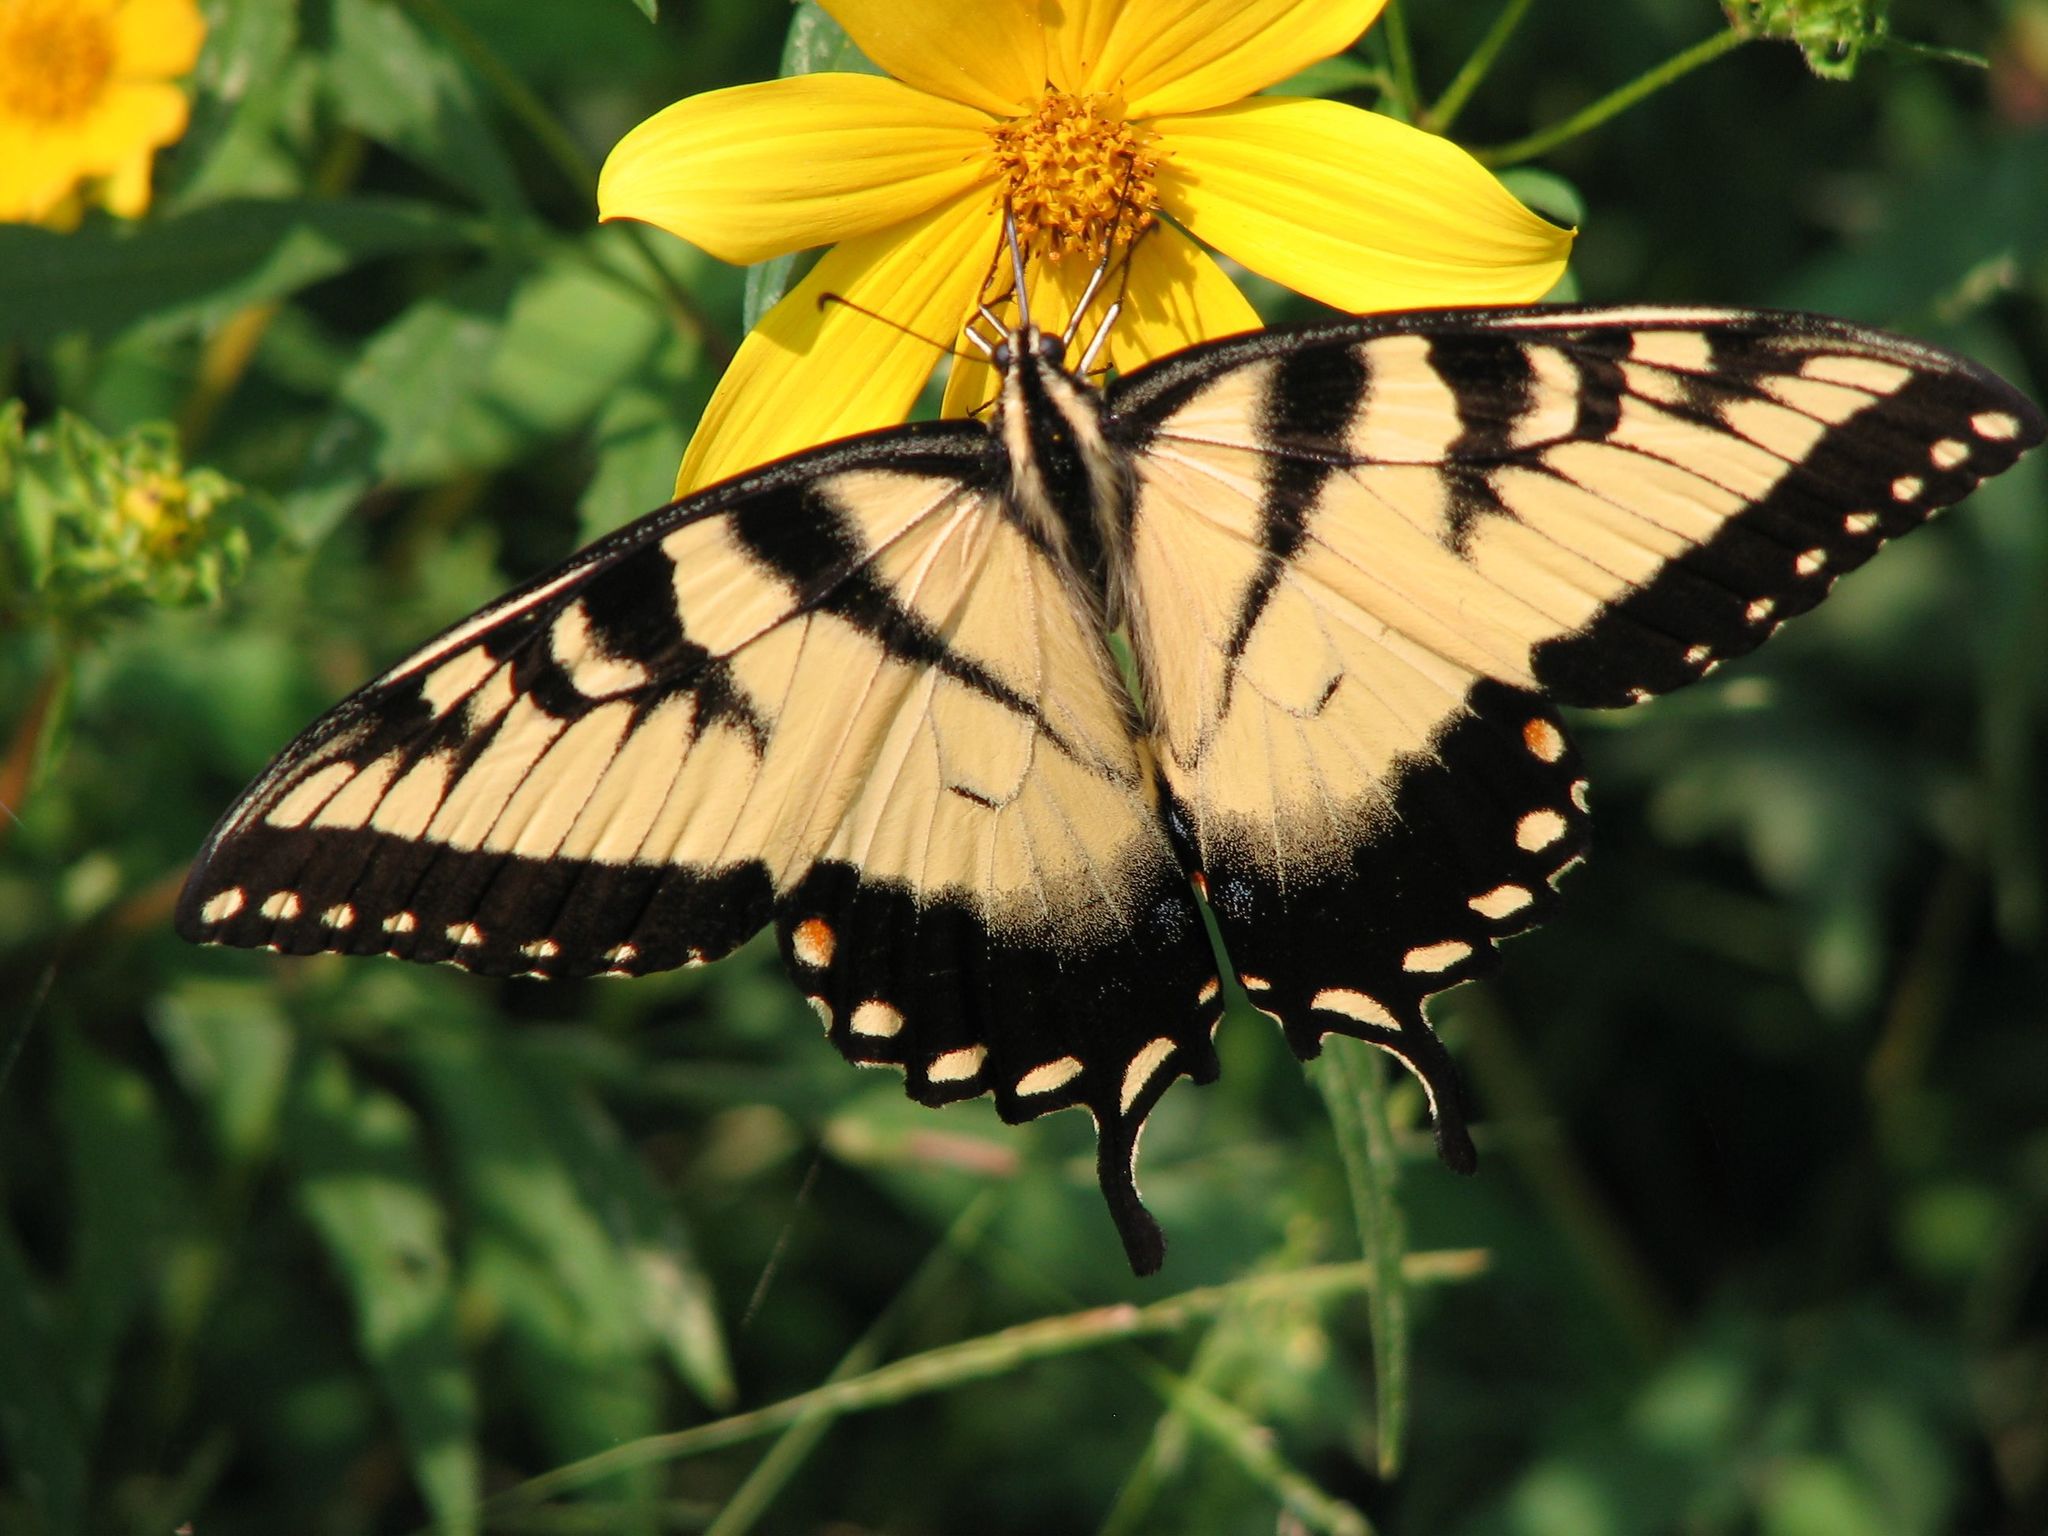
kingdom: Animalia
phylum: Arthropoda
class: Insecta
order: Lepidoptera
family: Papilionidae
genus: Papilio
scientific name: Papilio glaucus
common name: Tiger swallowtail
